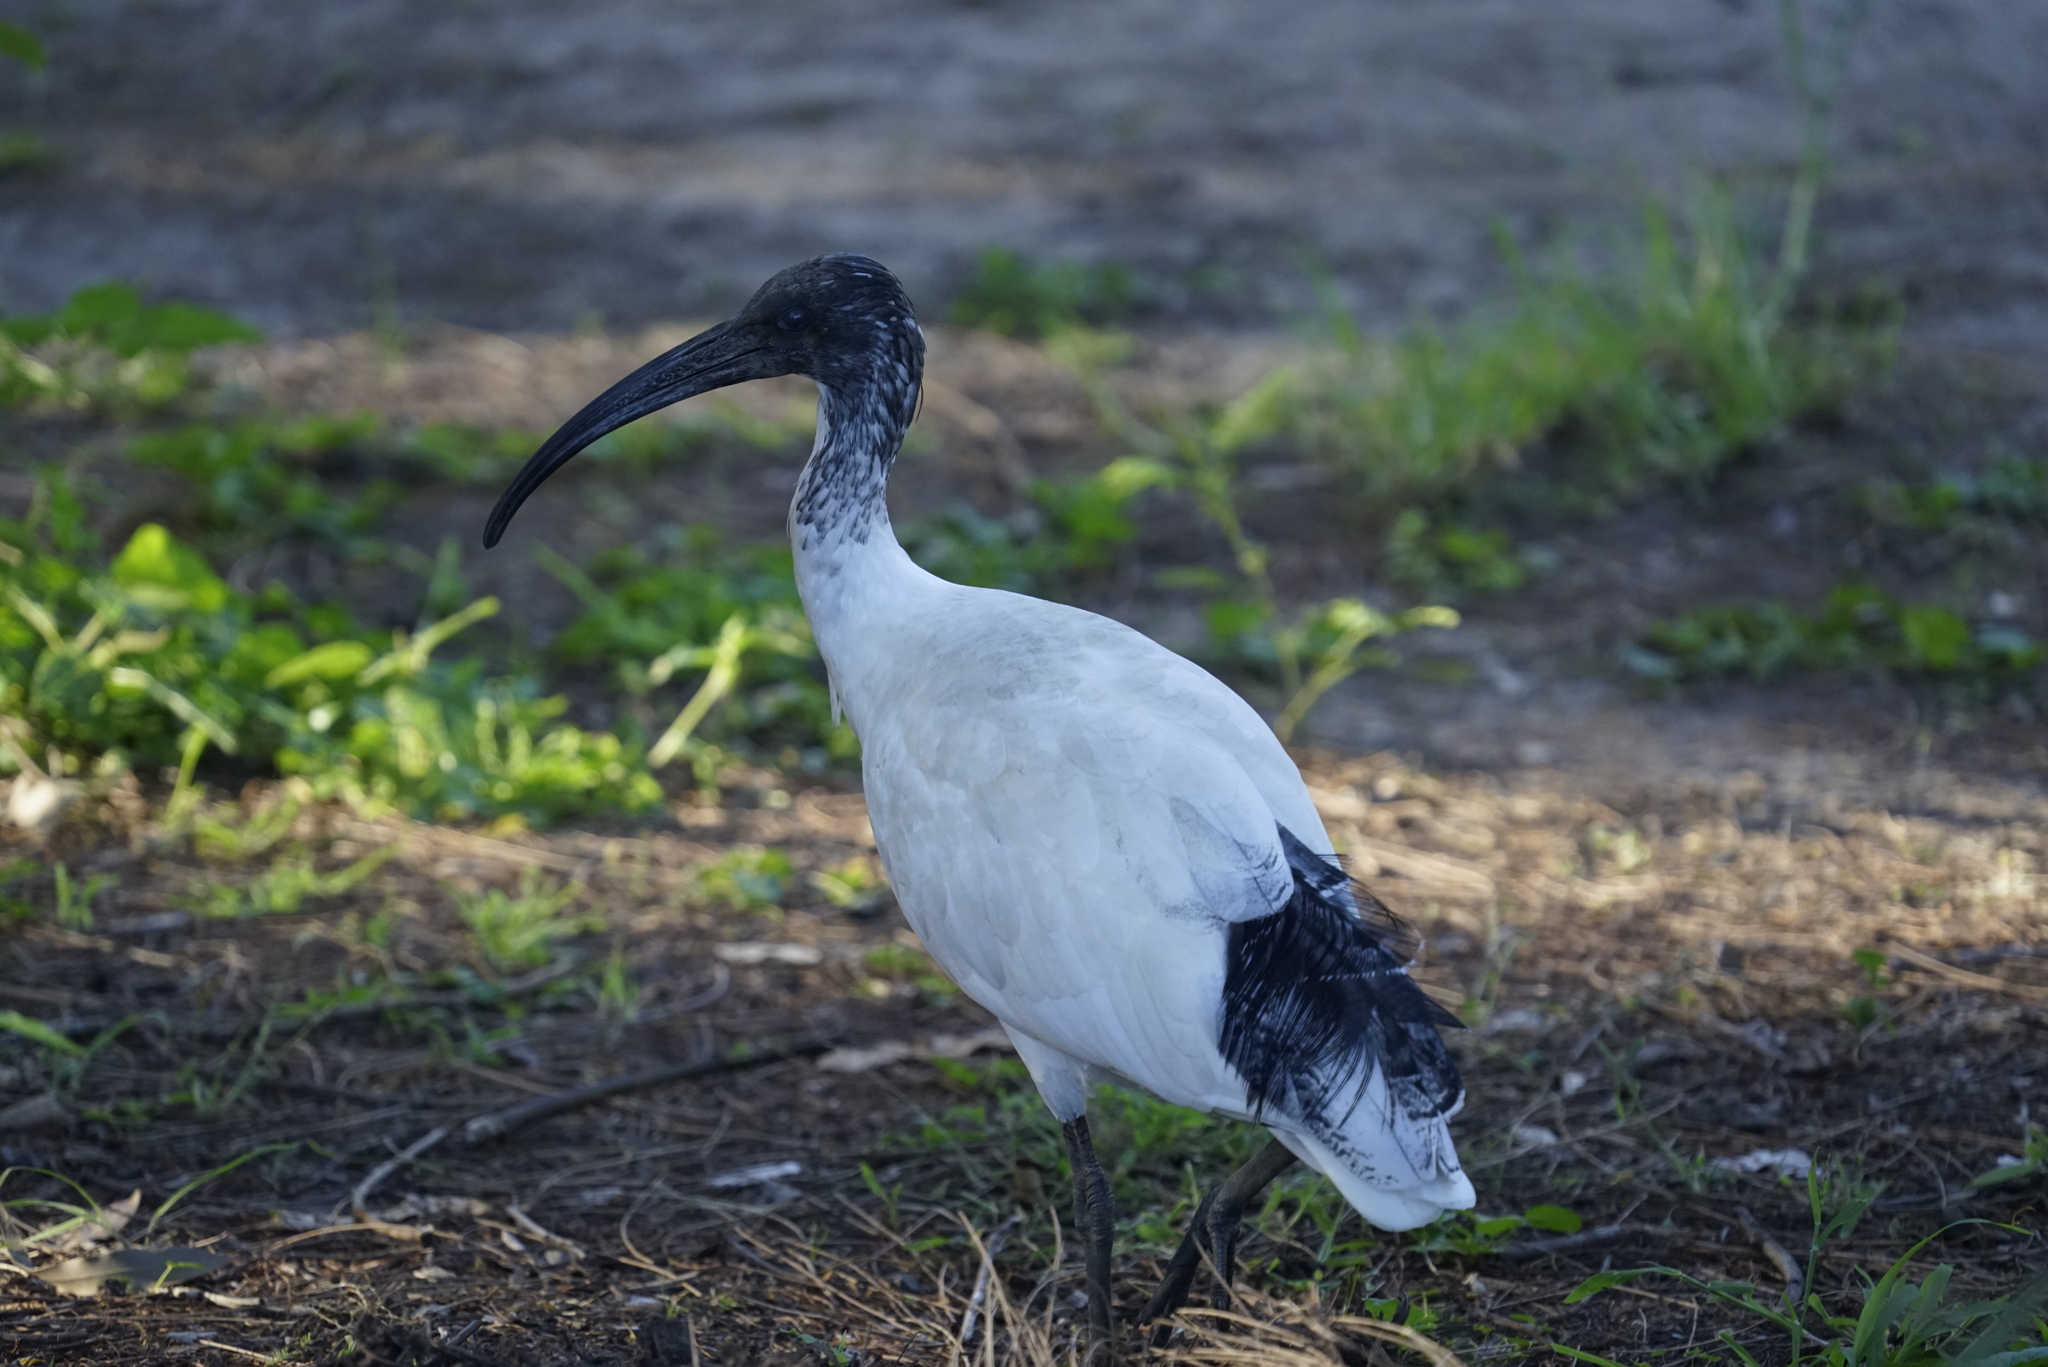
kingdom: Animalia
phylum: Chordata
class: Aves
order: Pelecaniformes
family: Threskiornithidae
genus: Threskiornis
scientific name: Threskiornis molucca
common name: Australian white ibis
